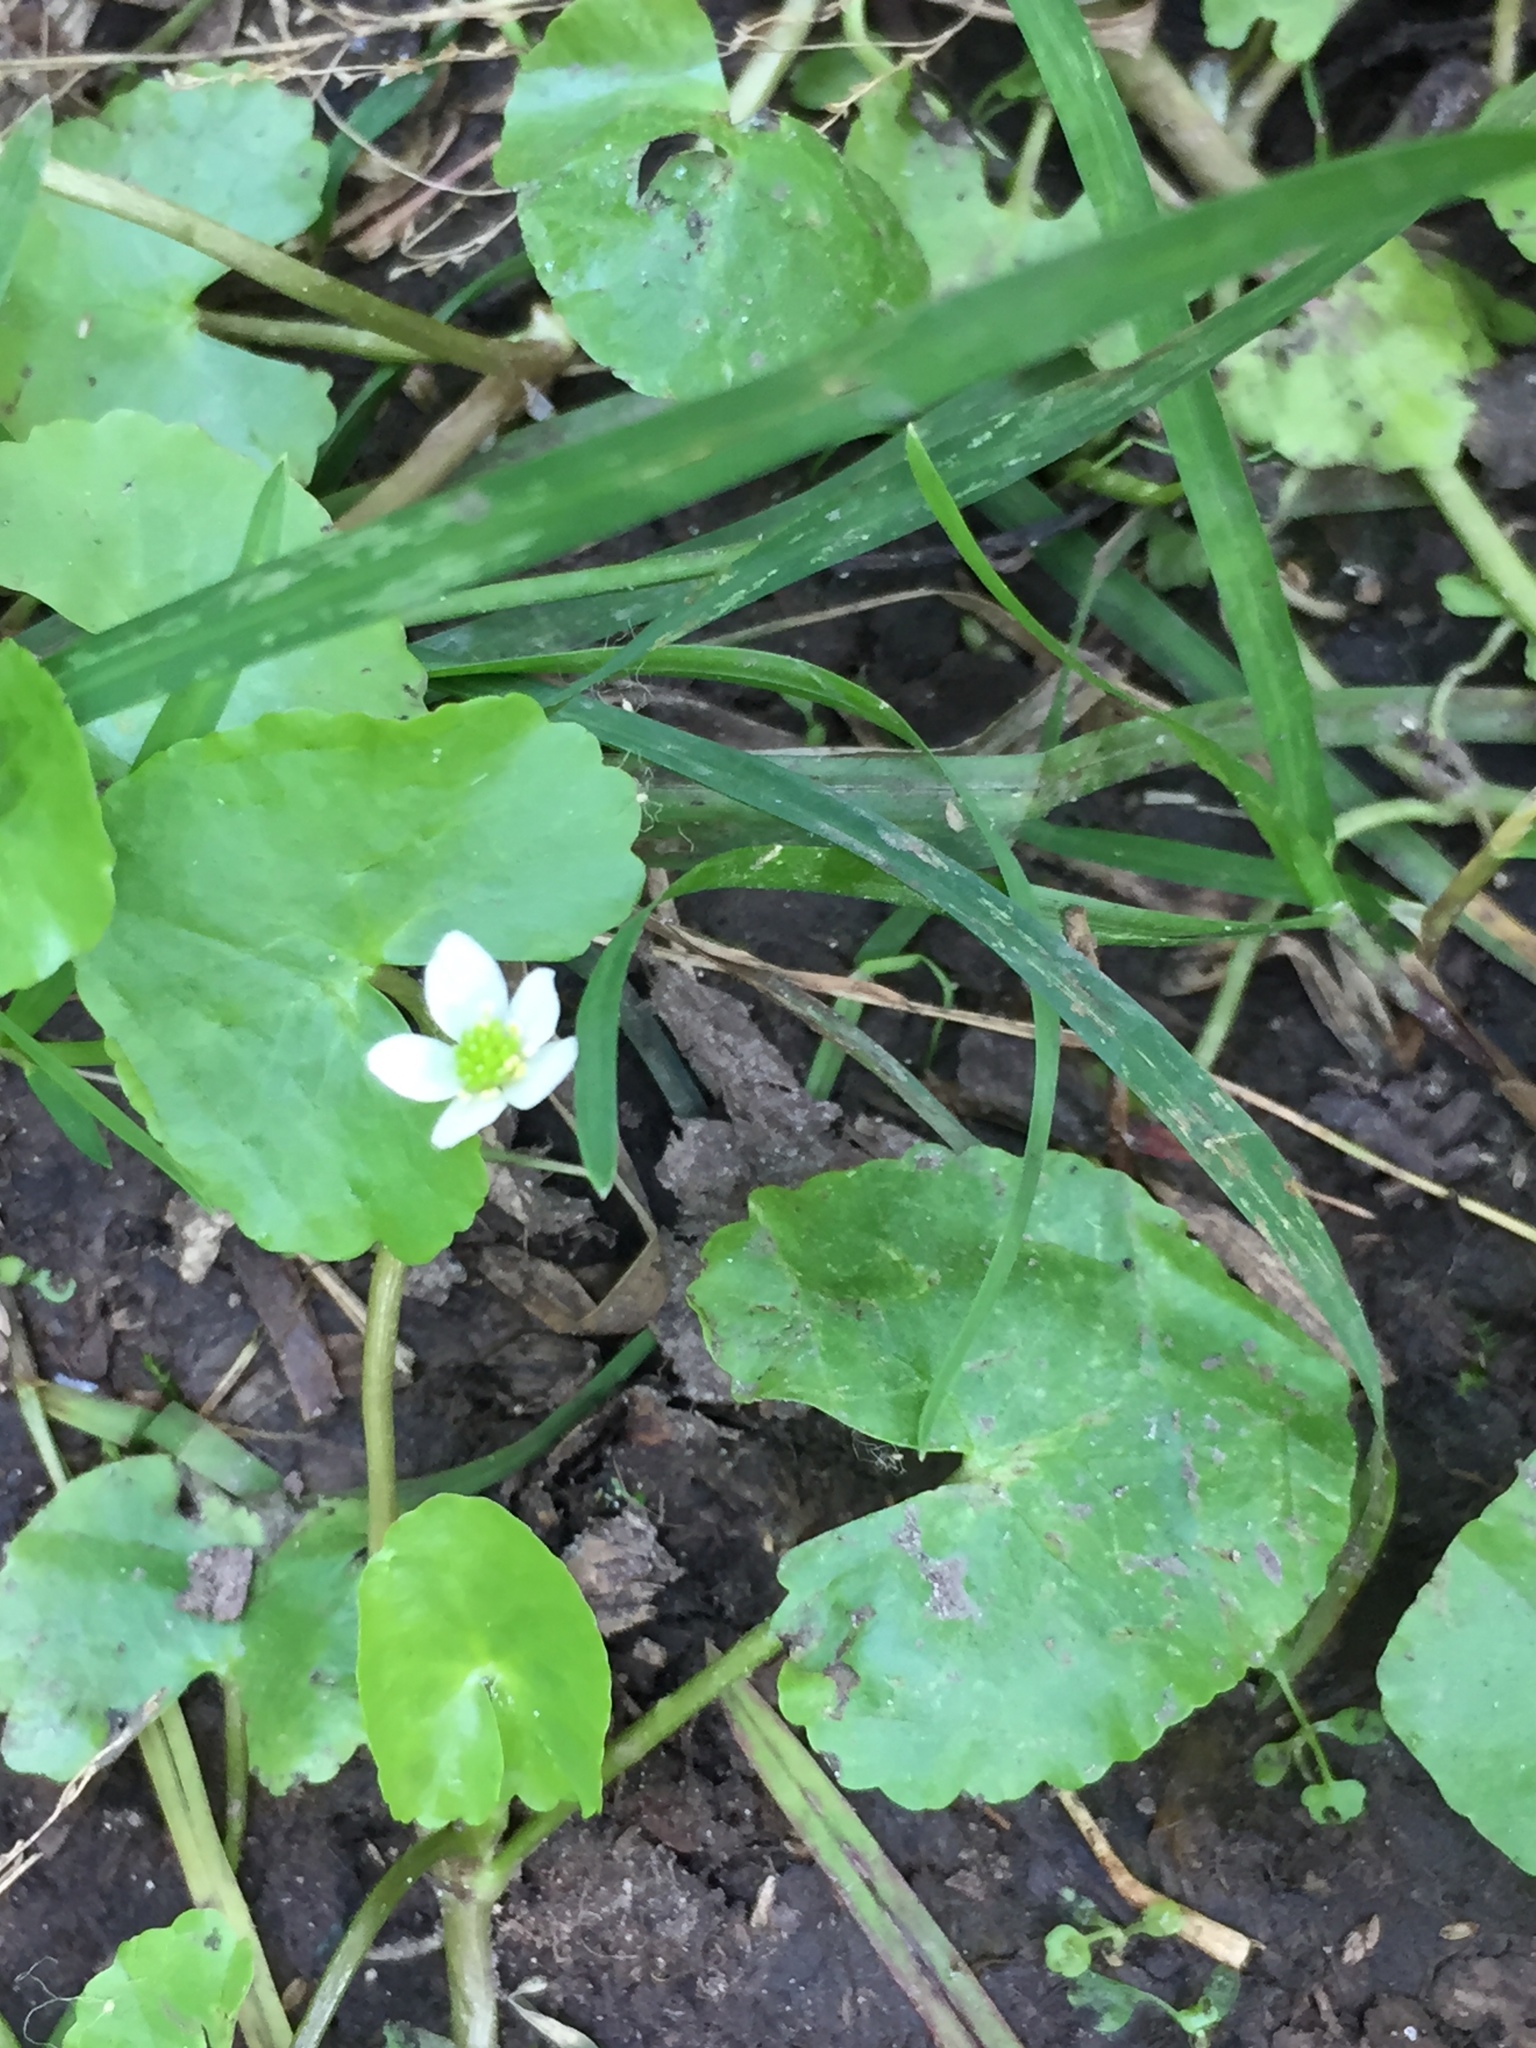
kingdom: Plantae
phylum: Tracheophyta
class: Magnoliopsida
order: Ranunculales
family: Ranunculaceae
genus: Caltha
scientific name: Caltha natans
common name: Floating marsh marigold
